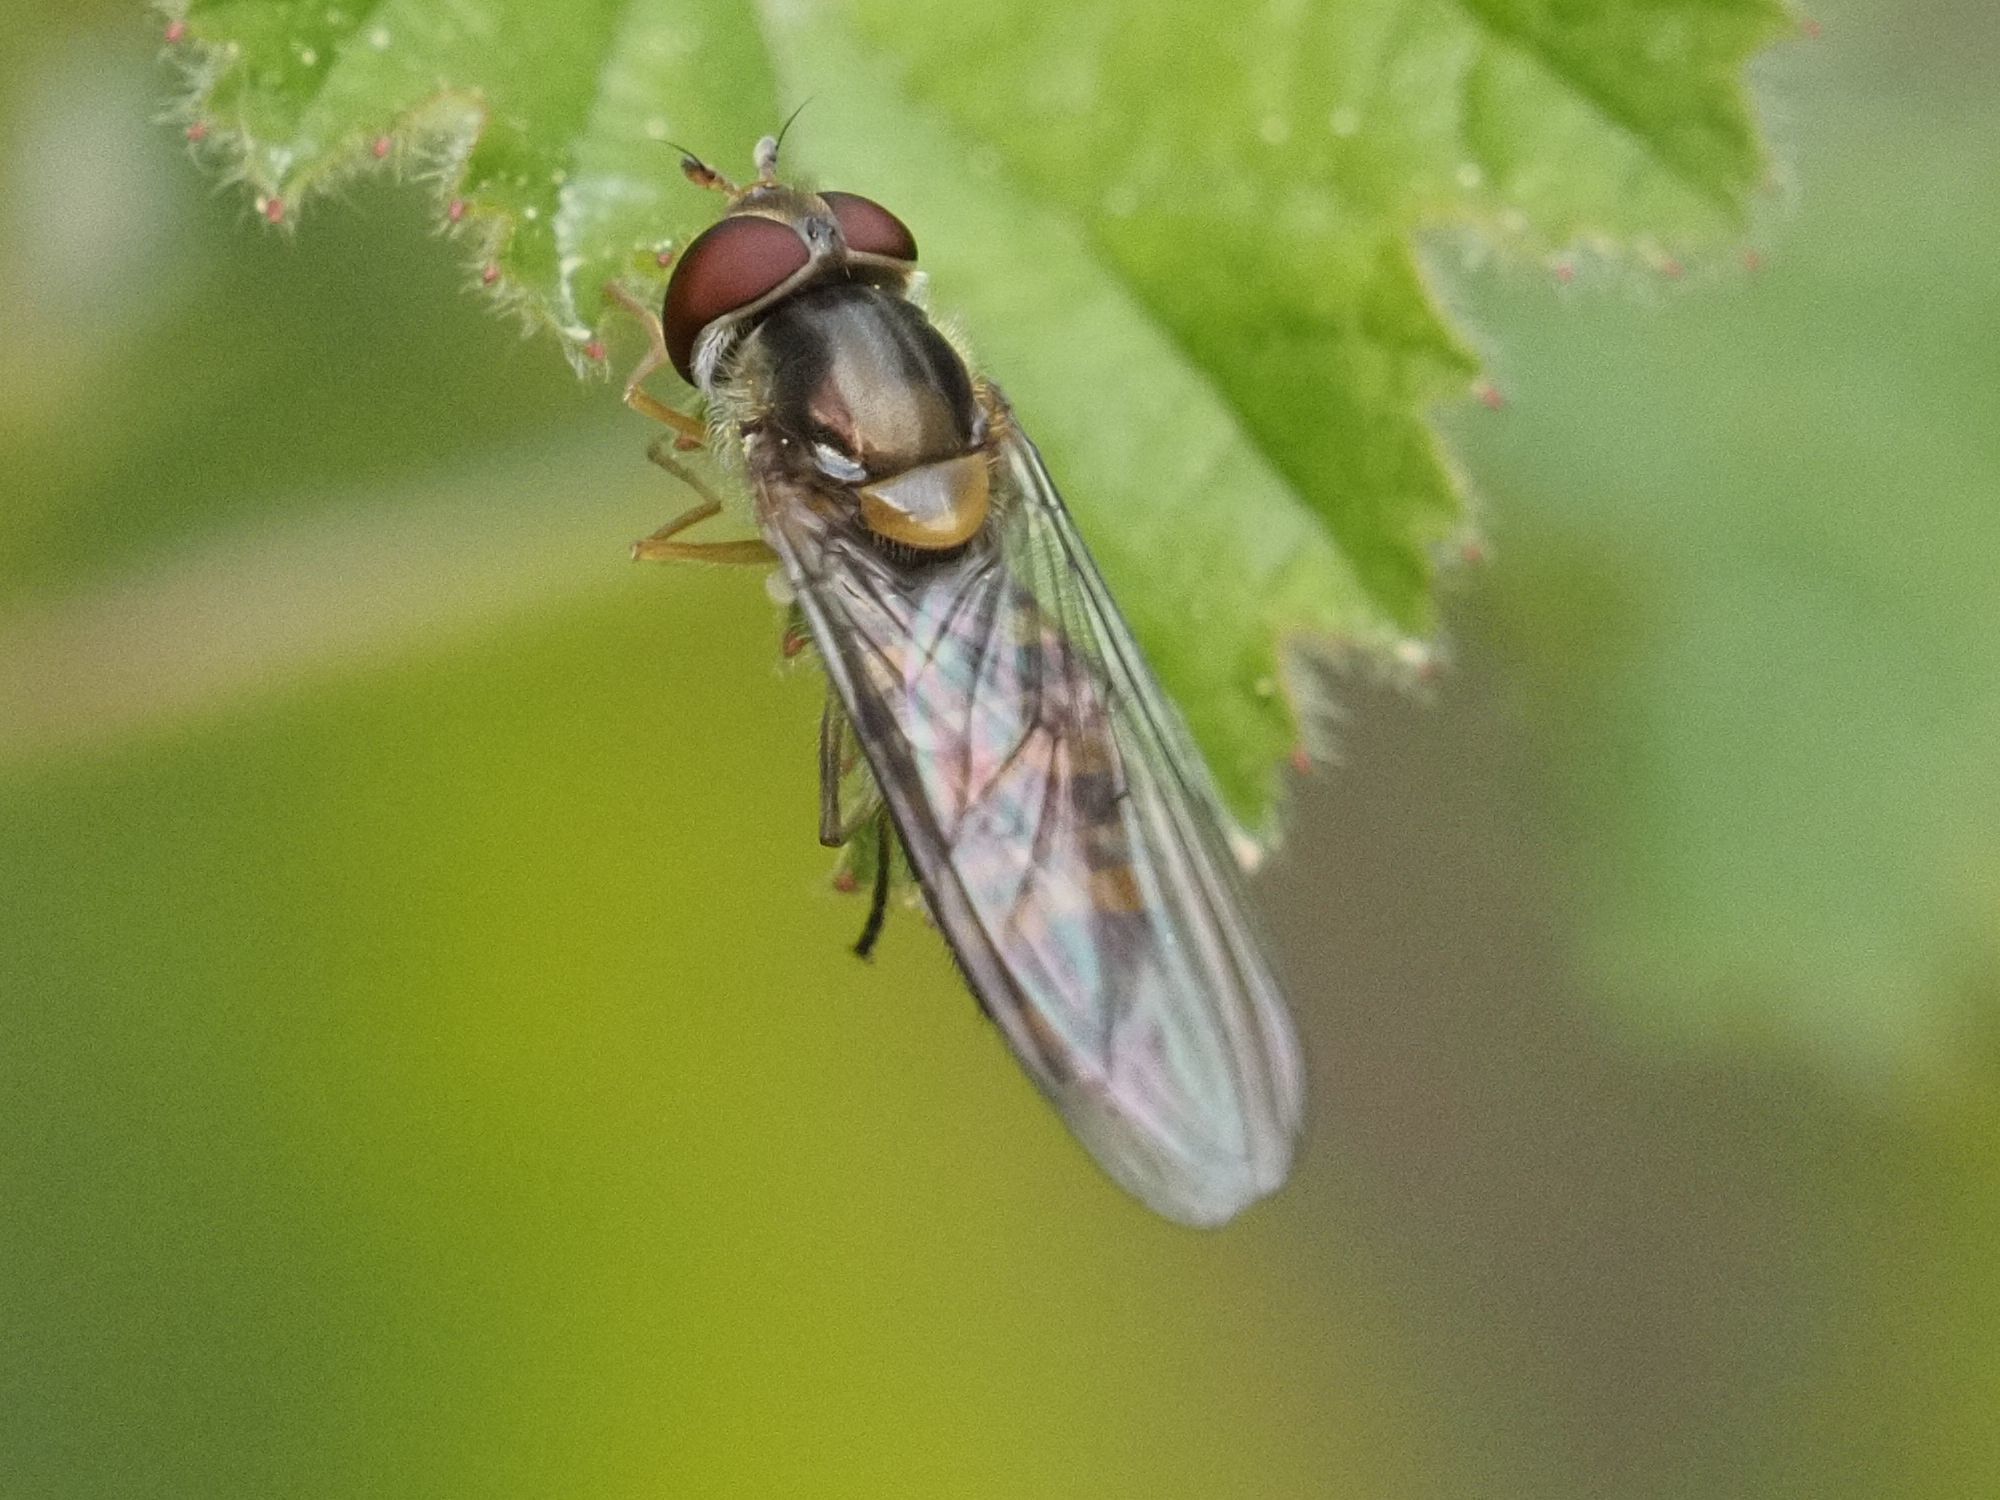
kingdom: Animalia
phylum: Arthropoda
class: Insecta
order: Diptera
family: Syrphidae
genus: Episyrphus
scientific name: Episyrphus balteatus
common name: Marmalade hoverfly
